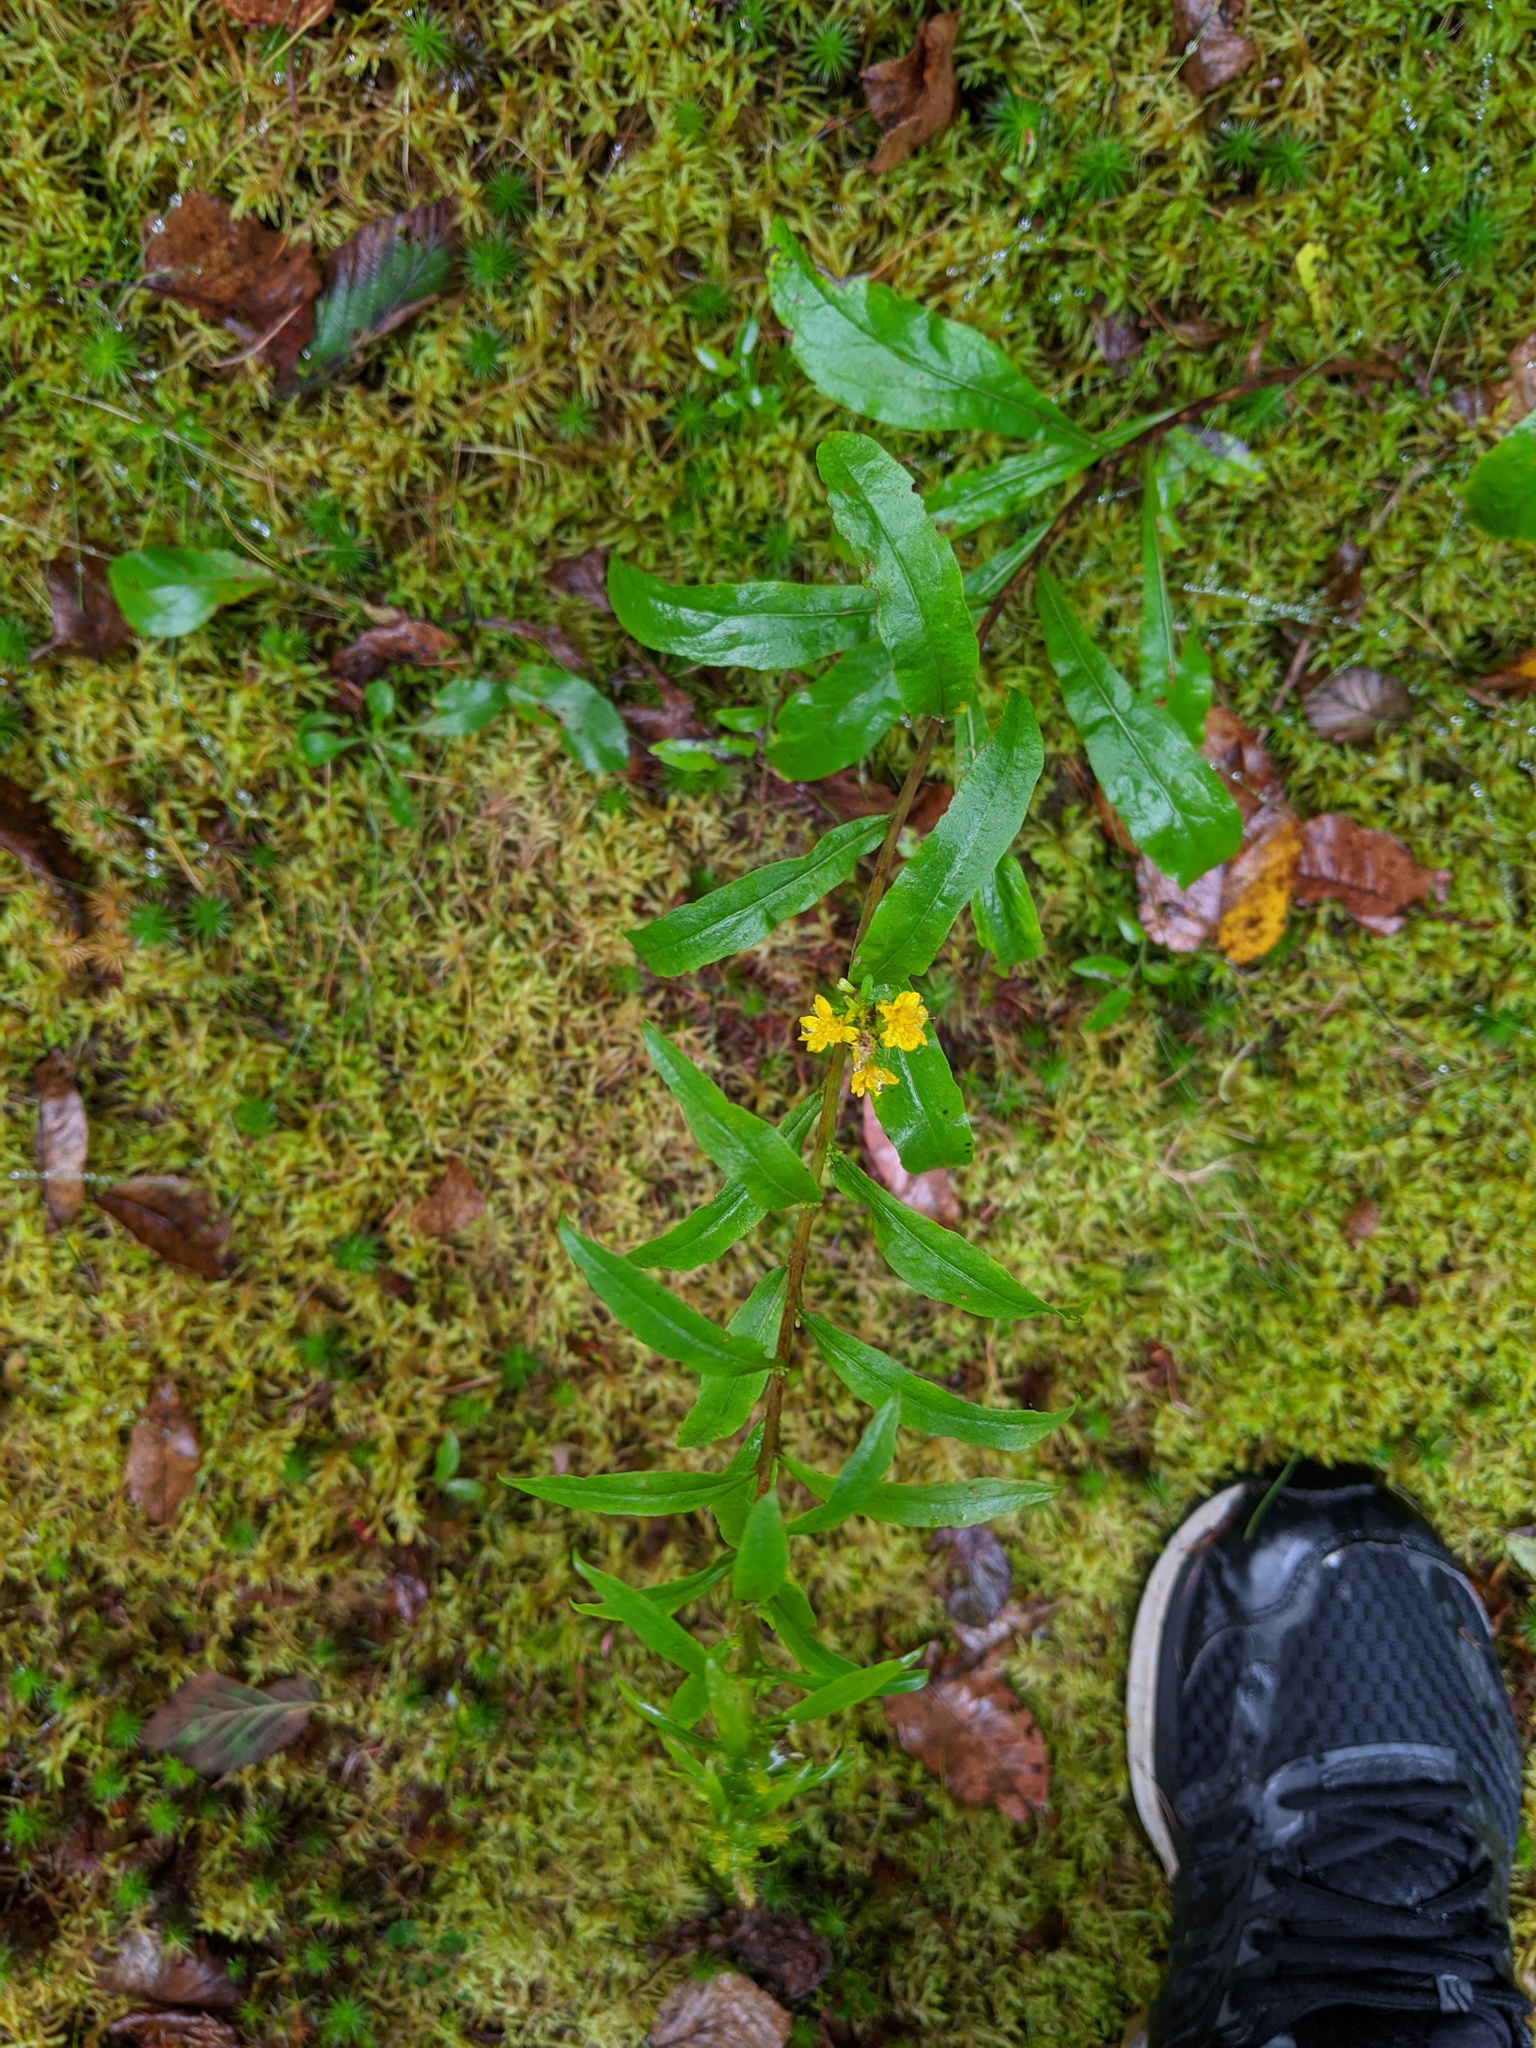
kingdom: Plantae
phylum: Tracheophyta
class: Magnoliopsida
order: Asterales
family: Asteraceae
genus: Solidago
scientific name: Solidago puberula
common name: Downy goldenrod
